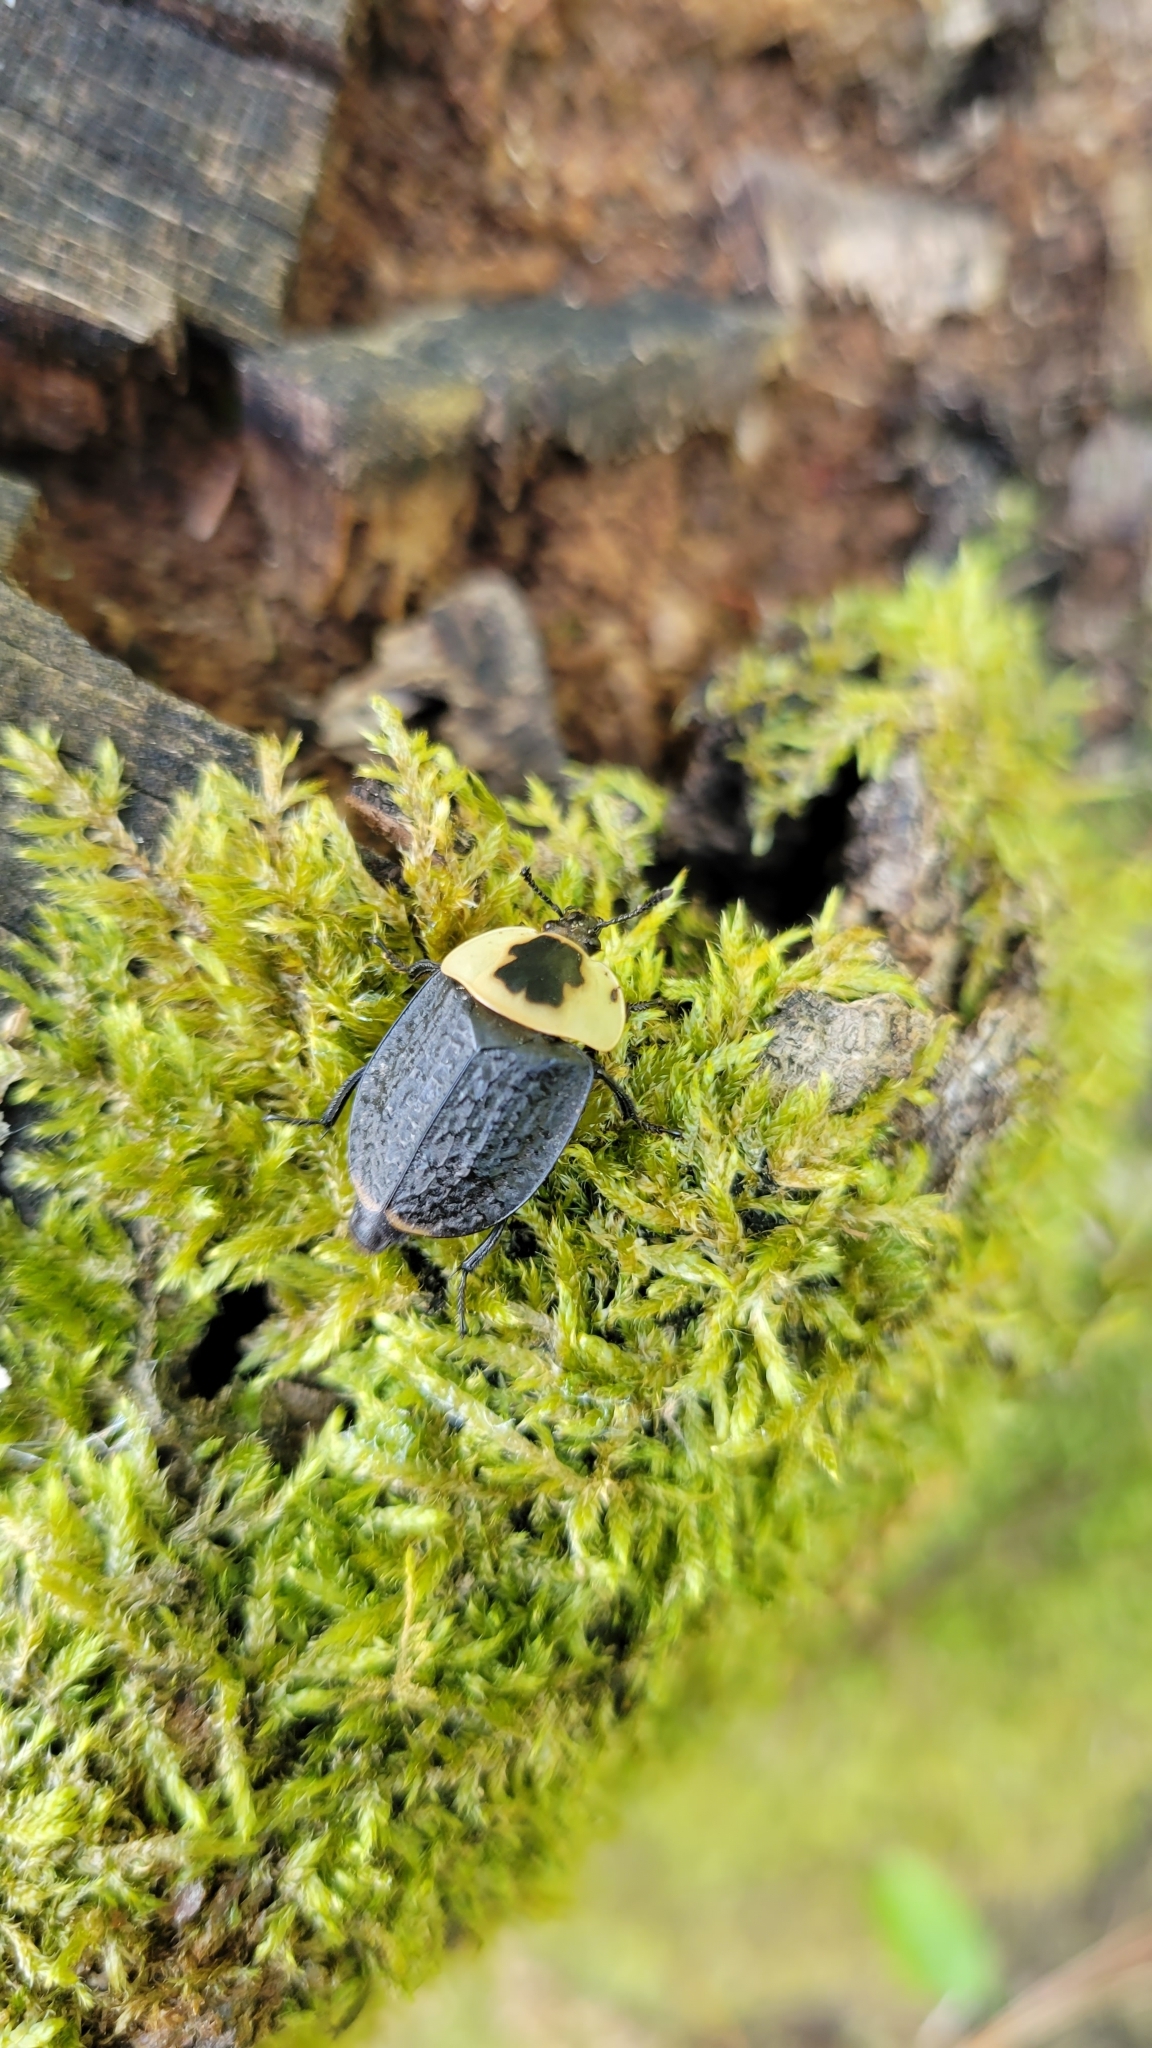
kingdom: Animalia
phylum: Arthropoda
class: Insecta
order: Coleoptera
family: Staphylinidae
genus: Necrophila
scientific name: Necrophila americana
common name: American carrion beetle
